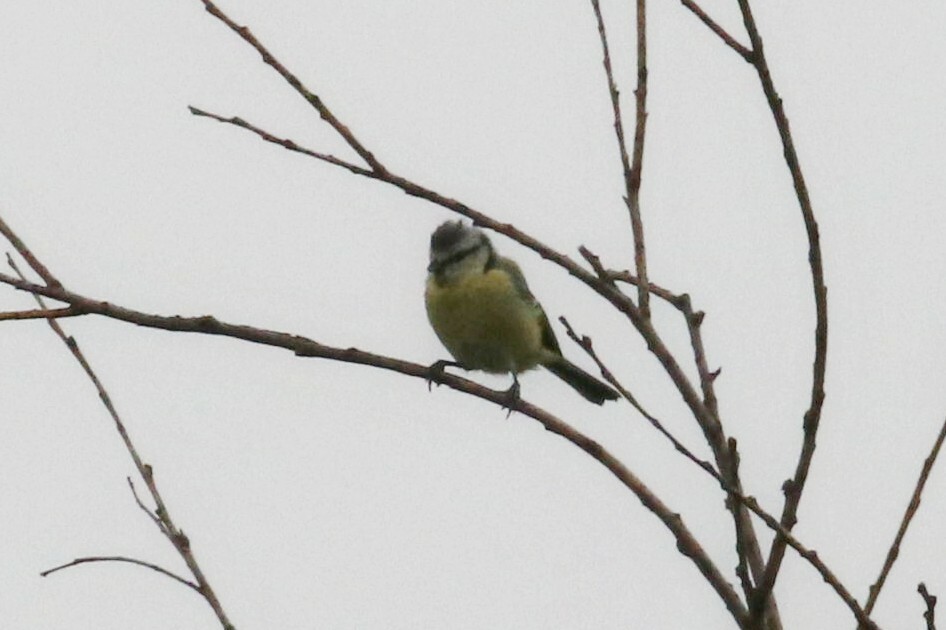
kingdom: Animalia
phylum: Chordata
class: Aves
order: Passeriformes
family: Paridae
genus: Cyanistes
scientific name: Cyanistes caeruleus
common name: Eurasian blue tit
